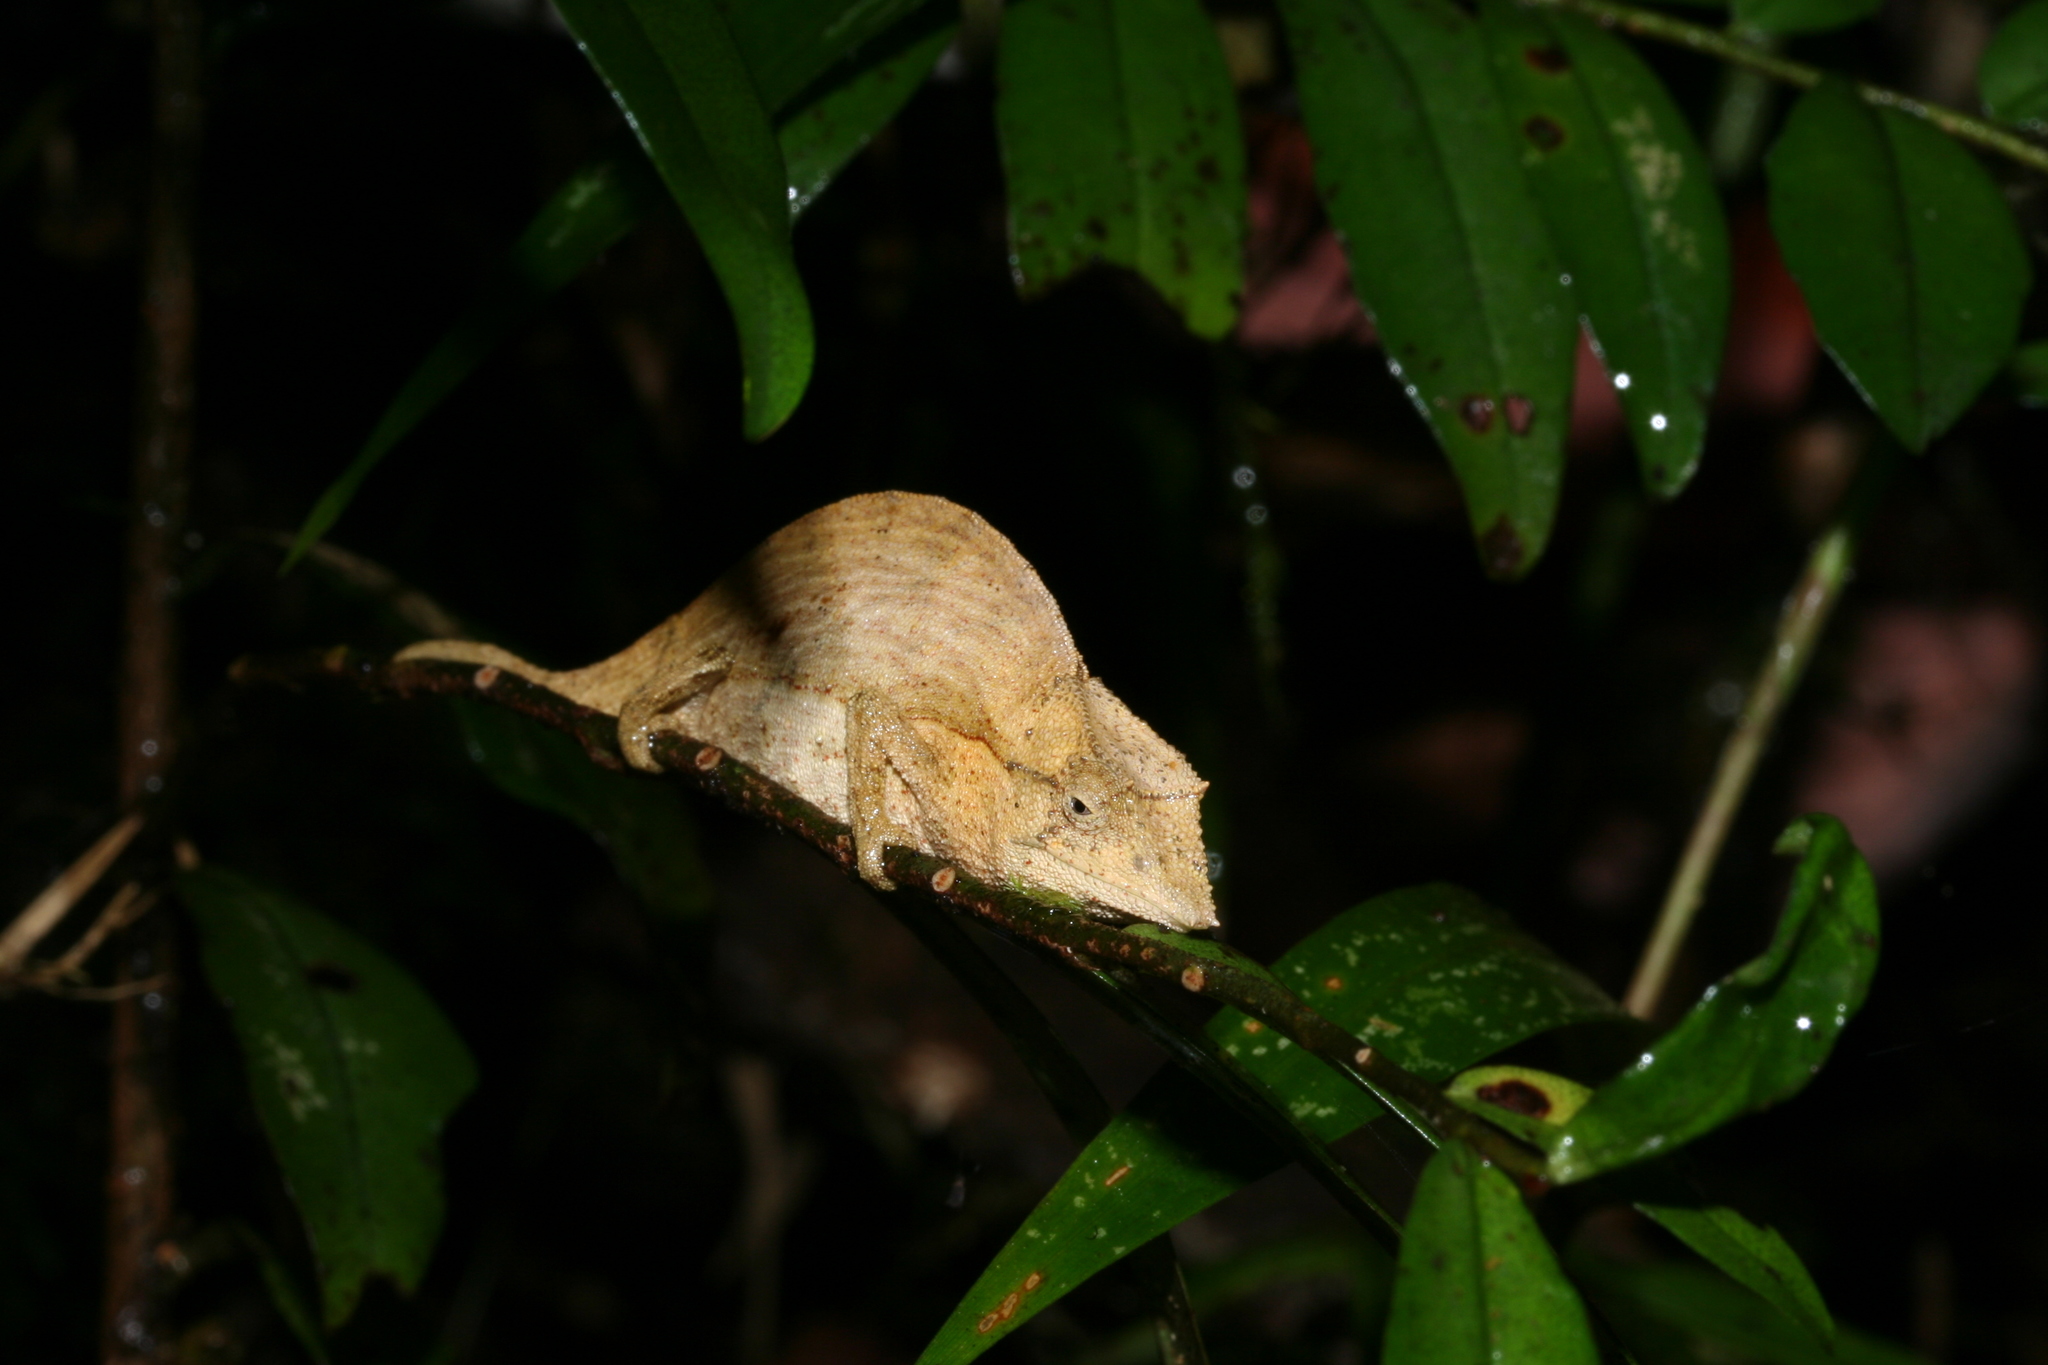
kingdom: Animalia
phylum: Chordata
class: Squamata
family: Chamaeleonidae
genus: Palleon
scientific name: Palleon nasus
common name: Elongate leaf chameleon
